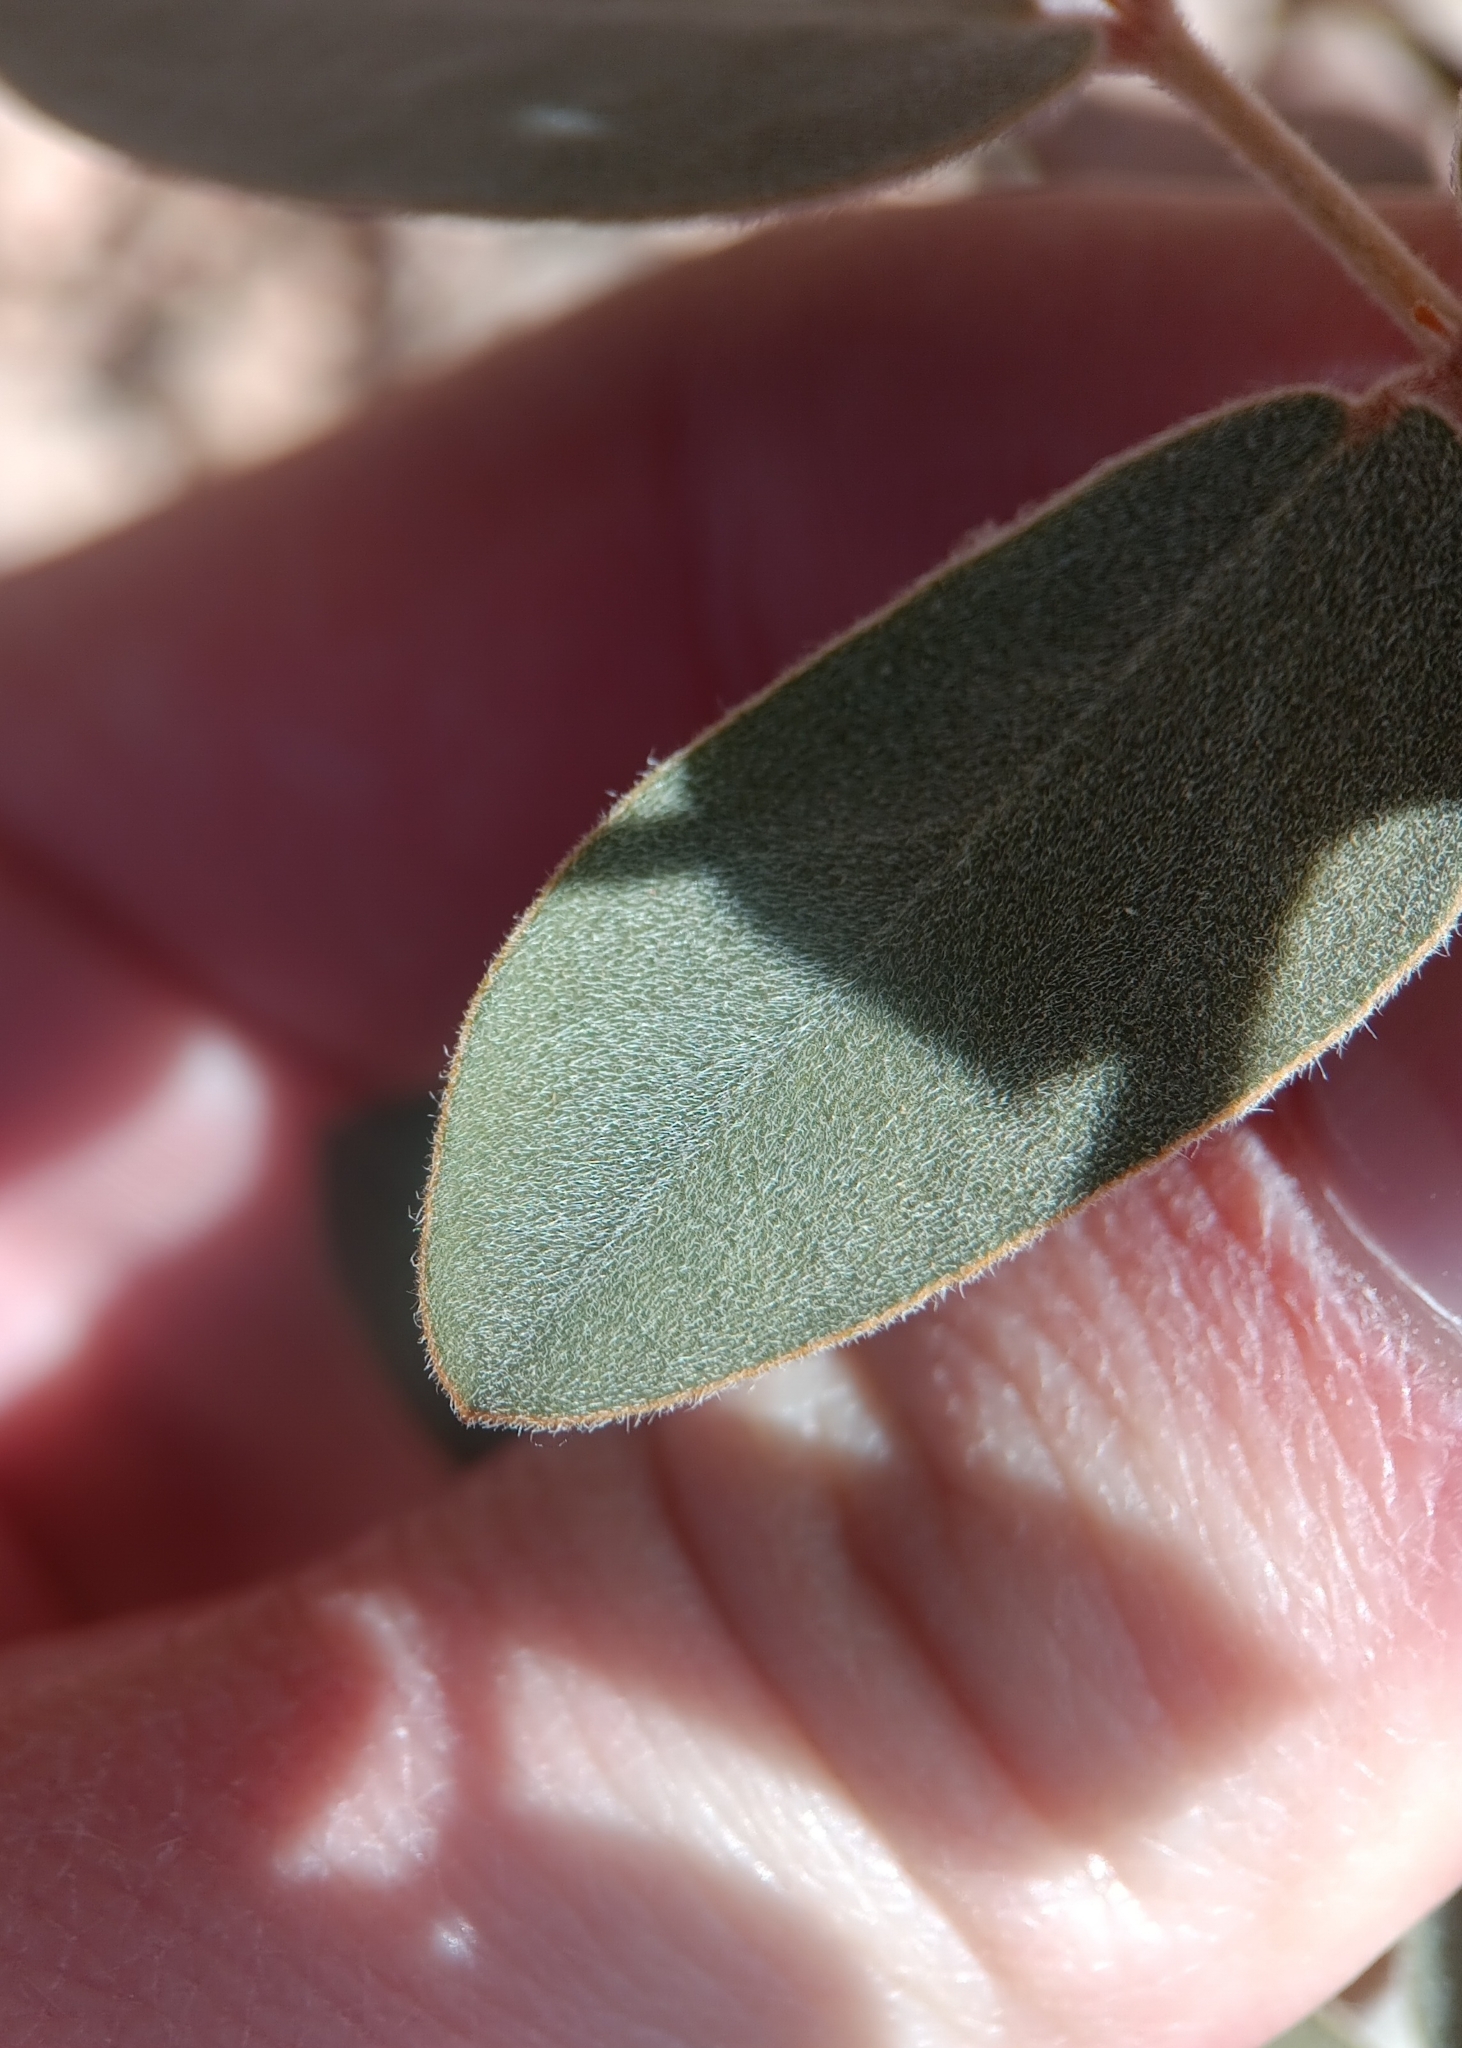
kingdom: Plantae
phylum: Tracheophyta
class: Magnoliopsida
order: Fabales
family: Fabaceae
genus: Senna
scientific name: Senna covesii
